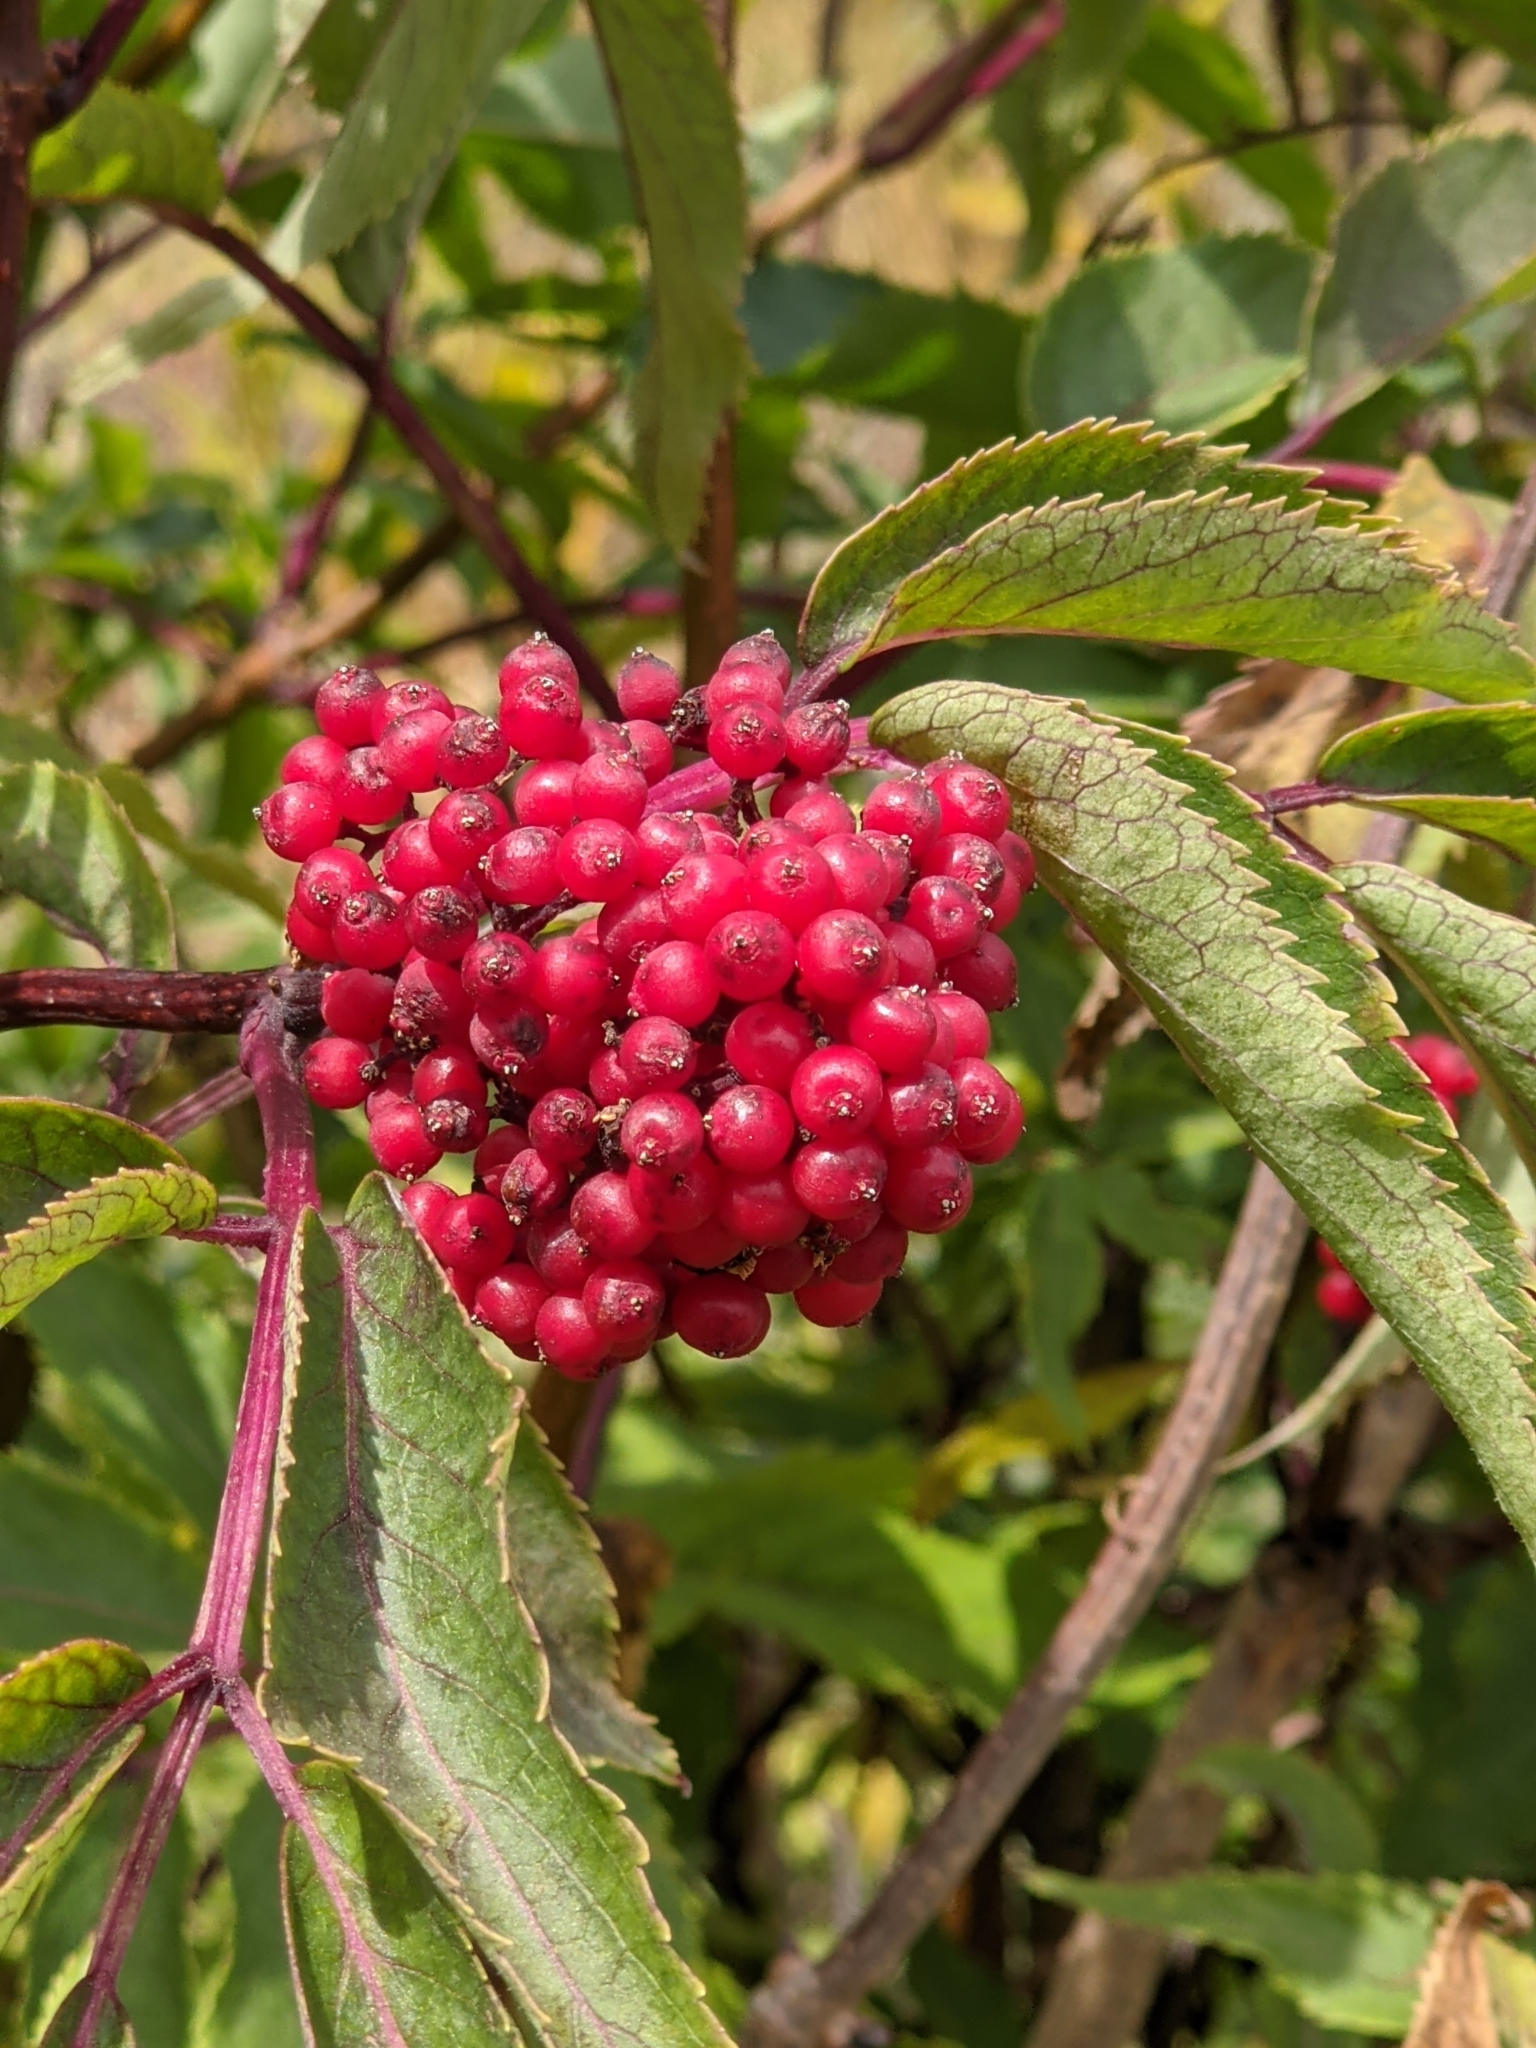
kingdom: Plantae
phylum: Tracheophyta
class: Magnoliopsida
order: Dipsacales
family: Viburnaceae
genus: Sambucus
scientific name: Sambucus racemosa
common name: Red-berried elder
